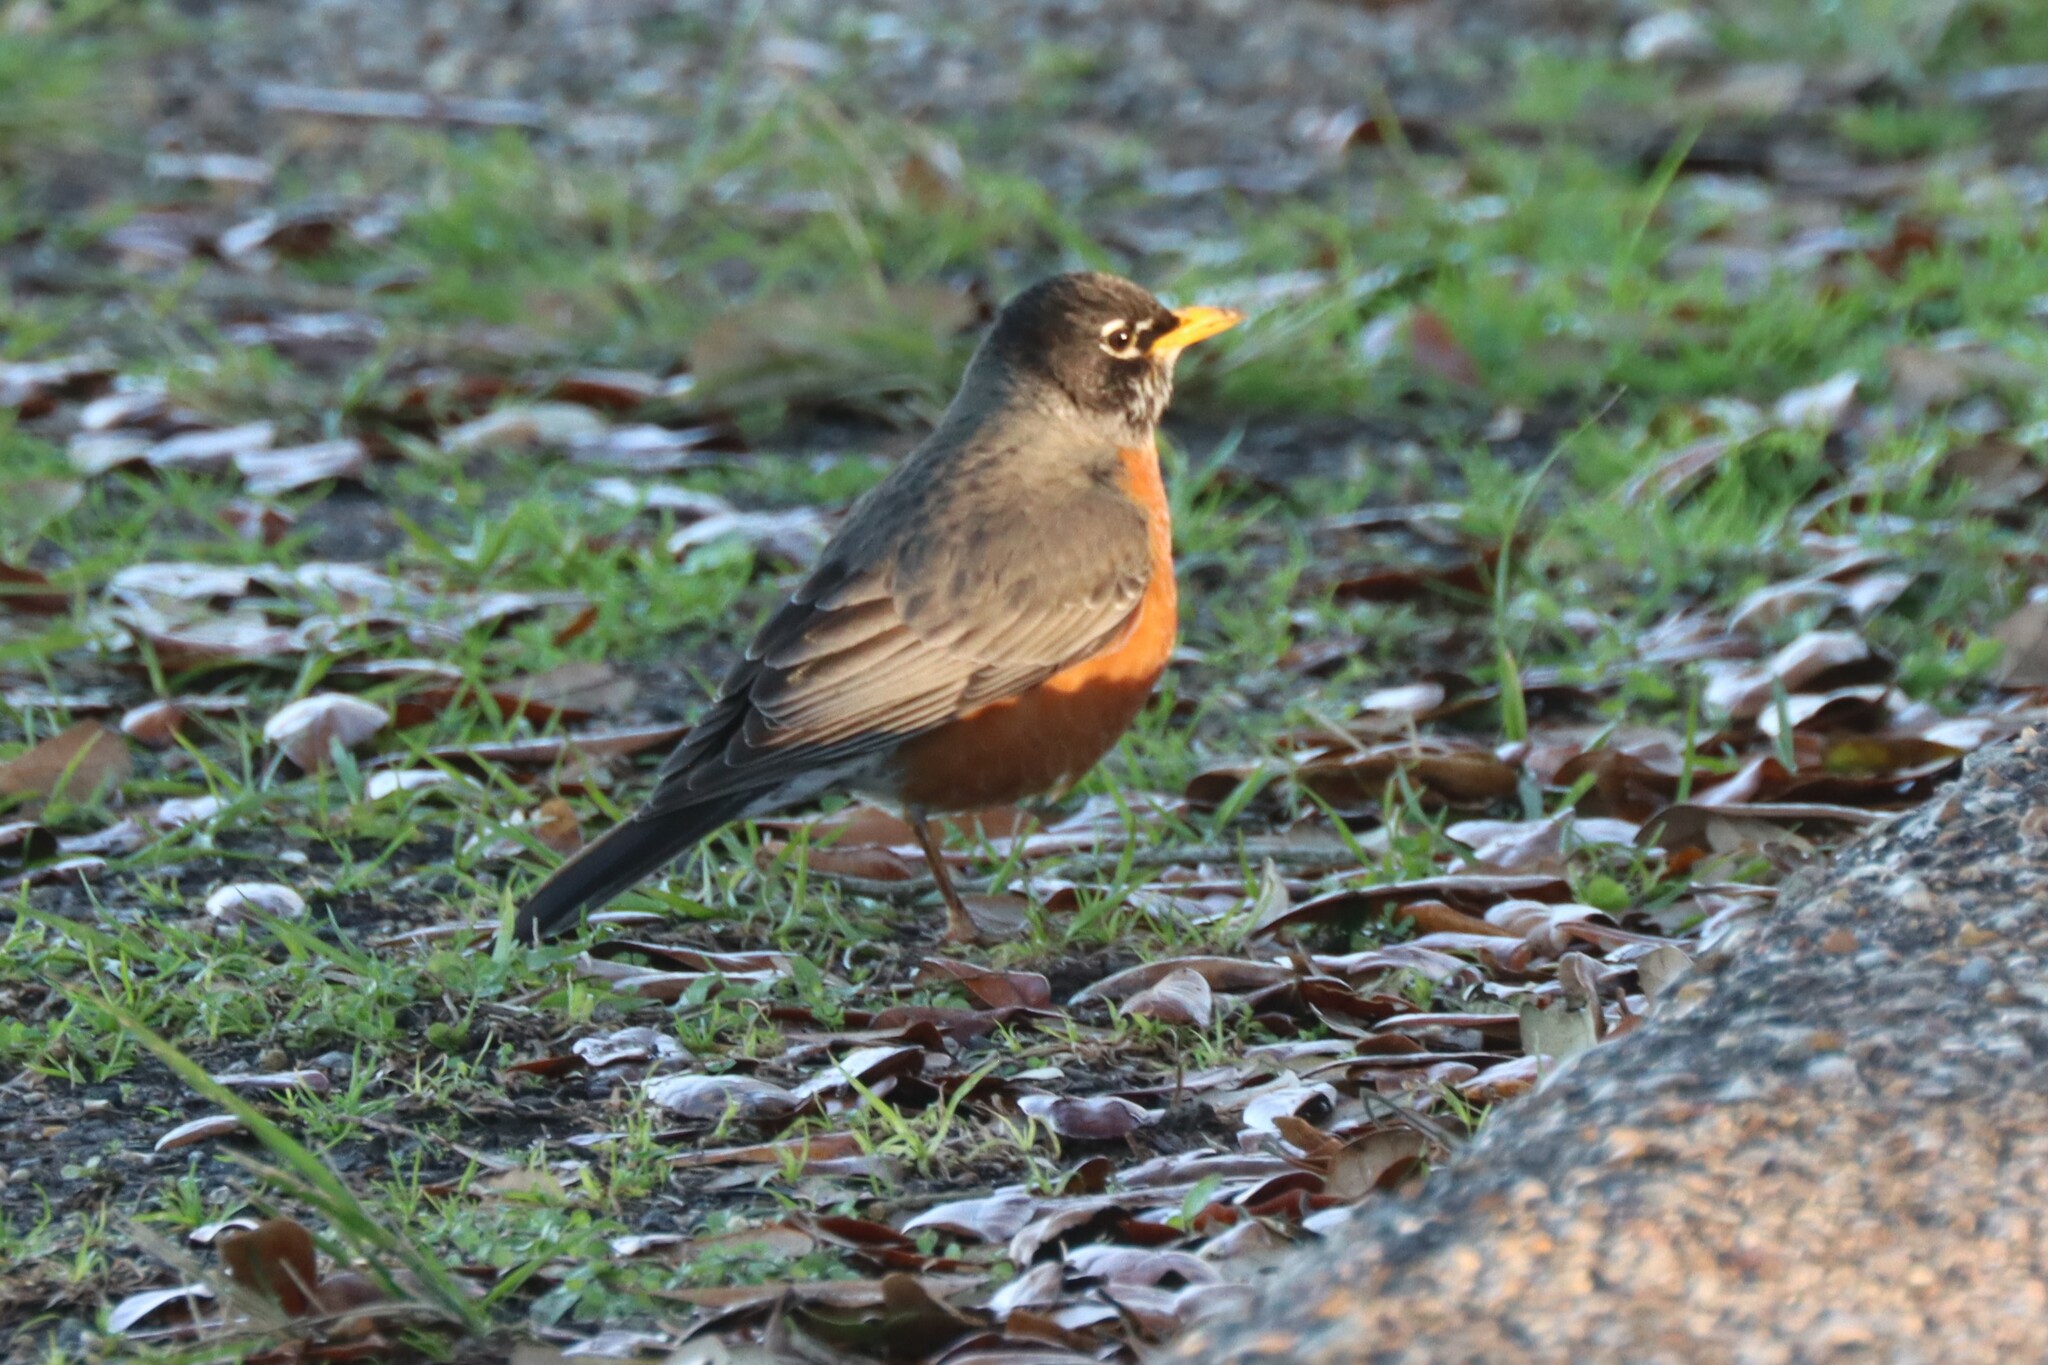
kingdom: Animalia
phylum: Chordata
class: Aves
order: Passeriformes
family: Turdidae
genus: Turdus
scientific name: Turdus migratorius
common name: American robin
